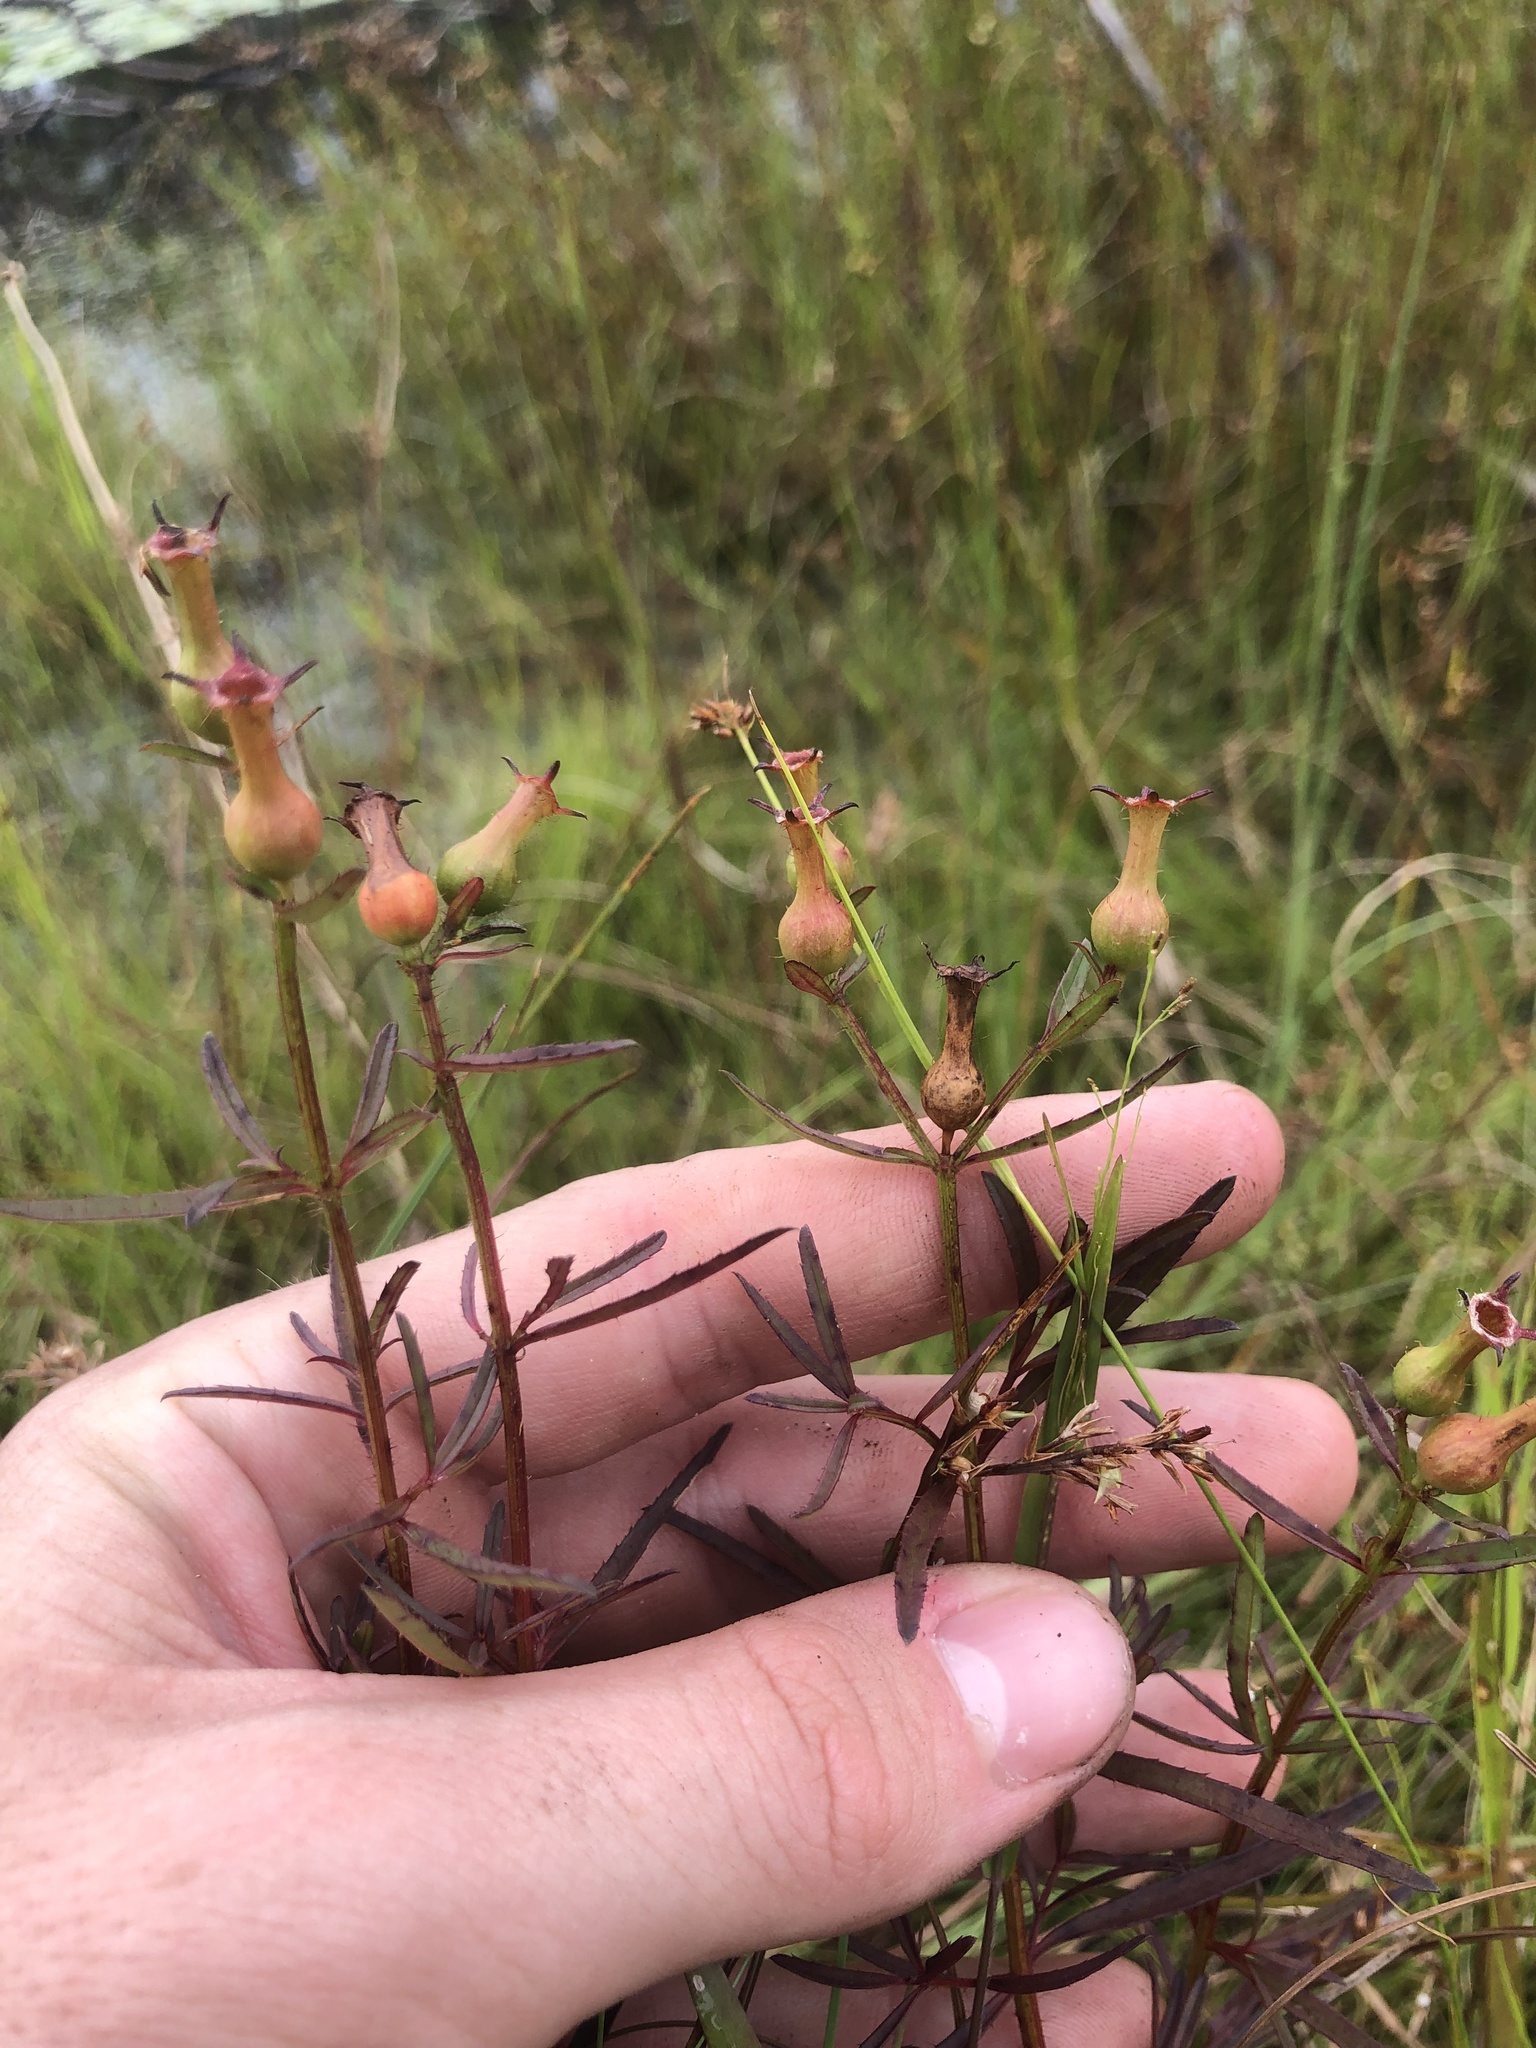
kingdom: Plantae
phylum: Tracheophyta
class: Magnoliopsida
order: Myrtales
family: Melastomataceae
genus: Rhexia
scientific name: Rhexia cubensis
